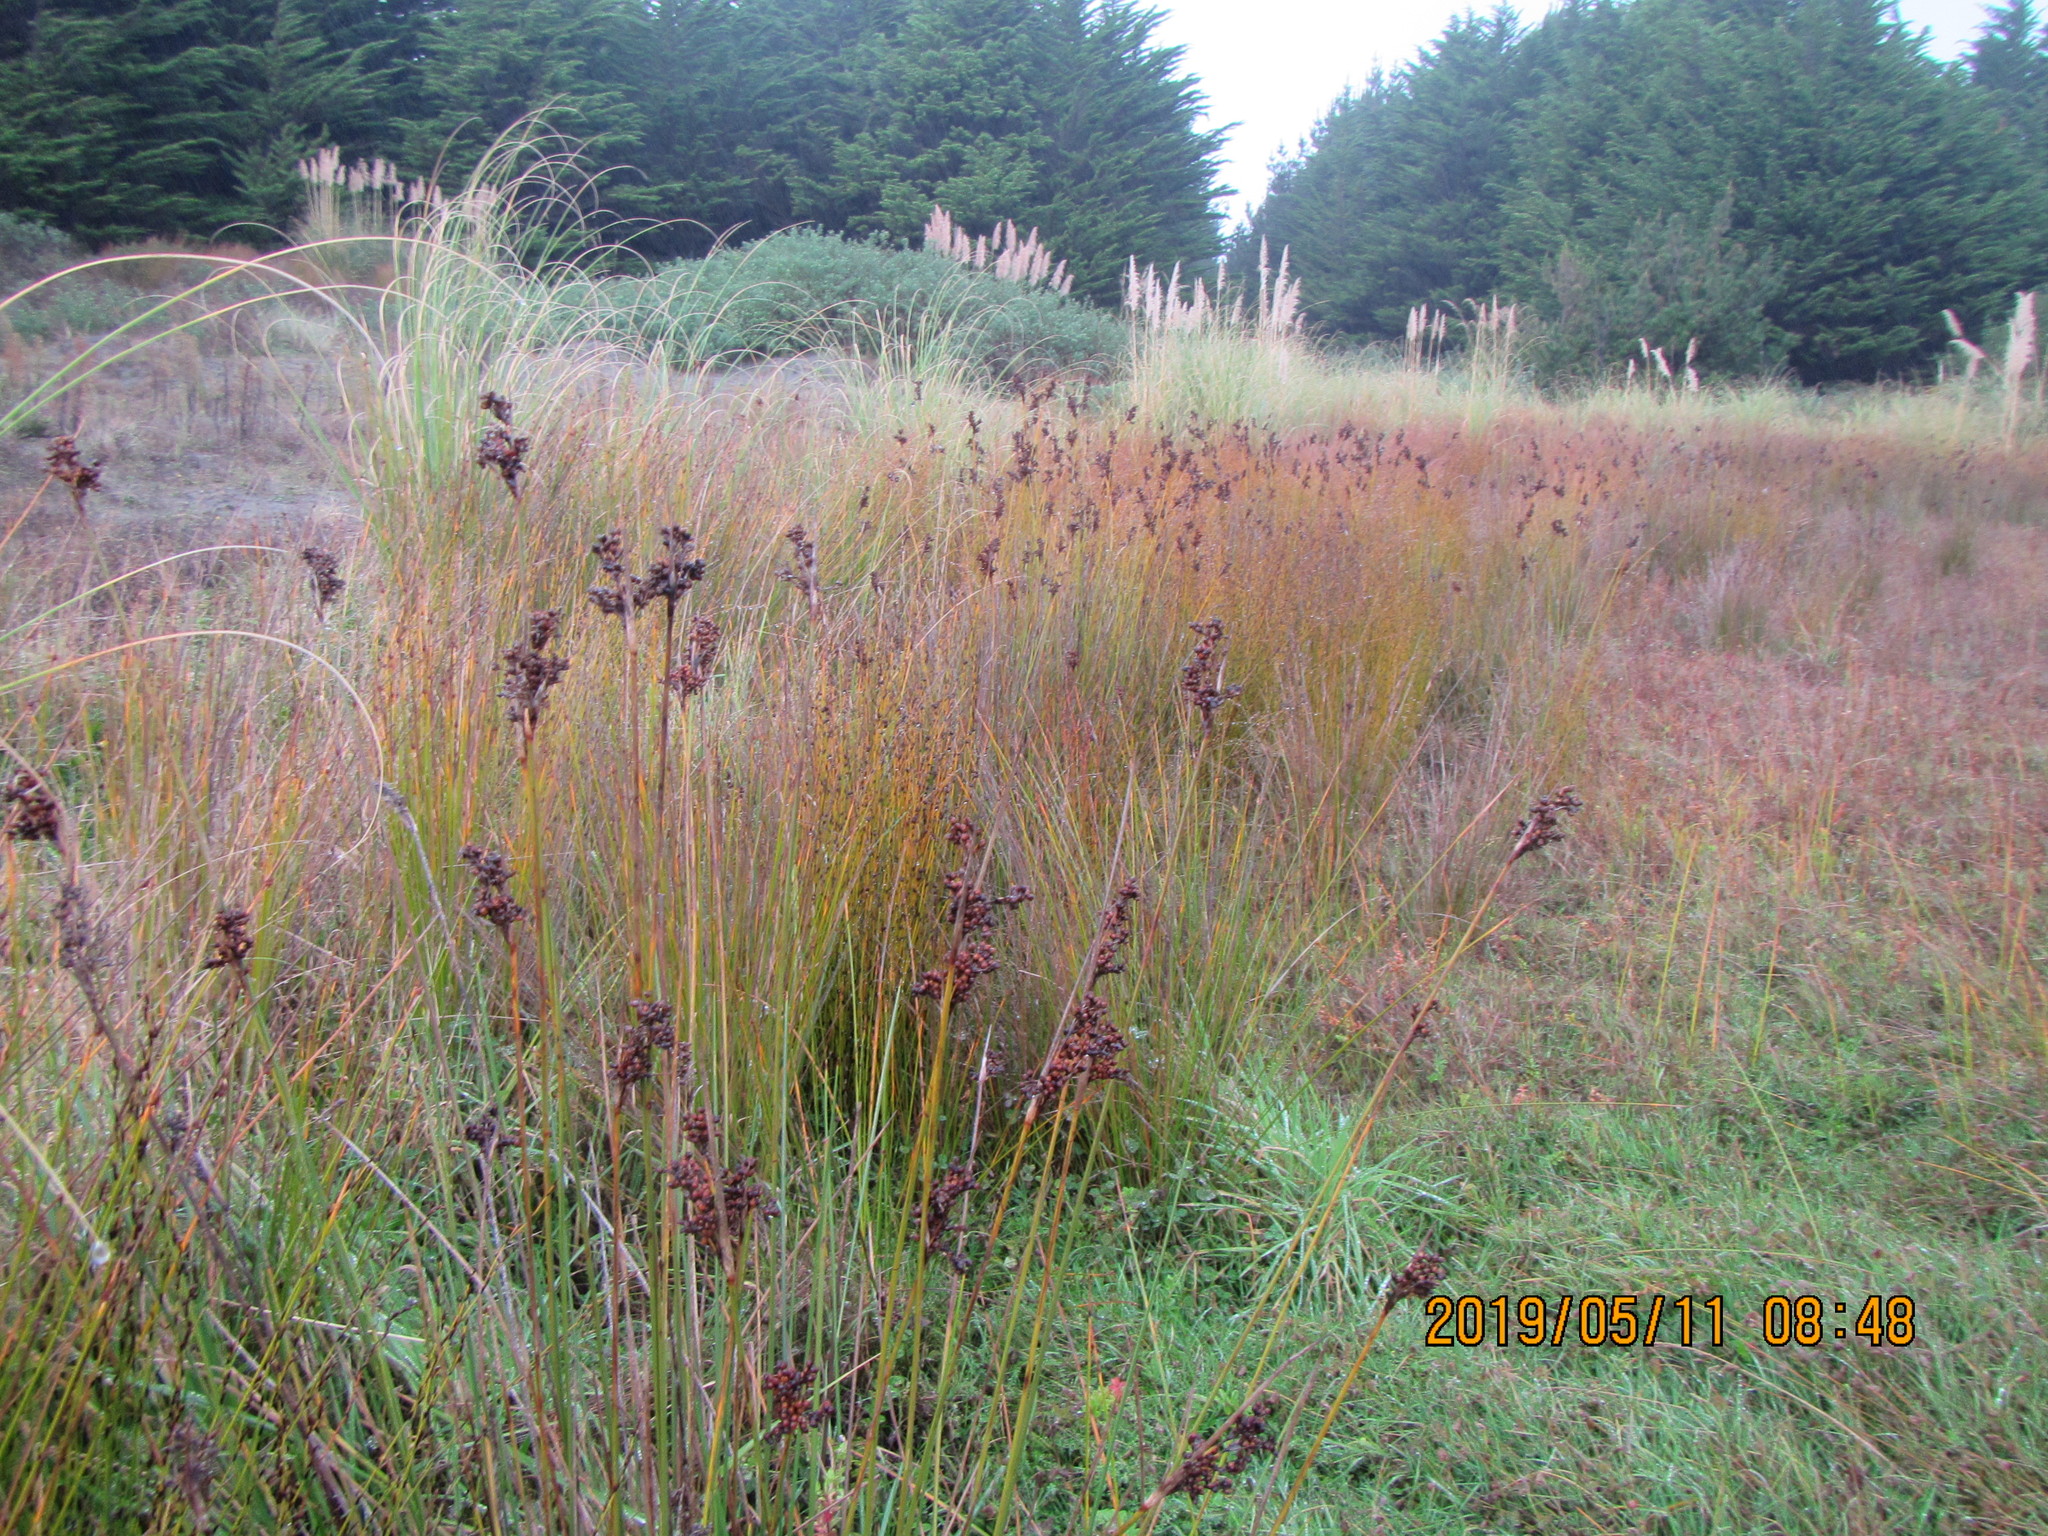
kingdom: Plantae
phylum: Tracheophyta
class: Liliopsida
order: Poales
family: Juncaceae
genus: Juncus
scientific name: Juncus acutus
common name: Sharp rush
